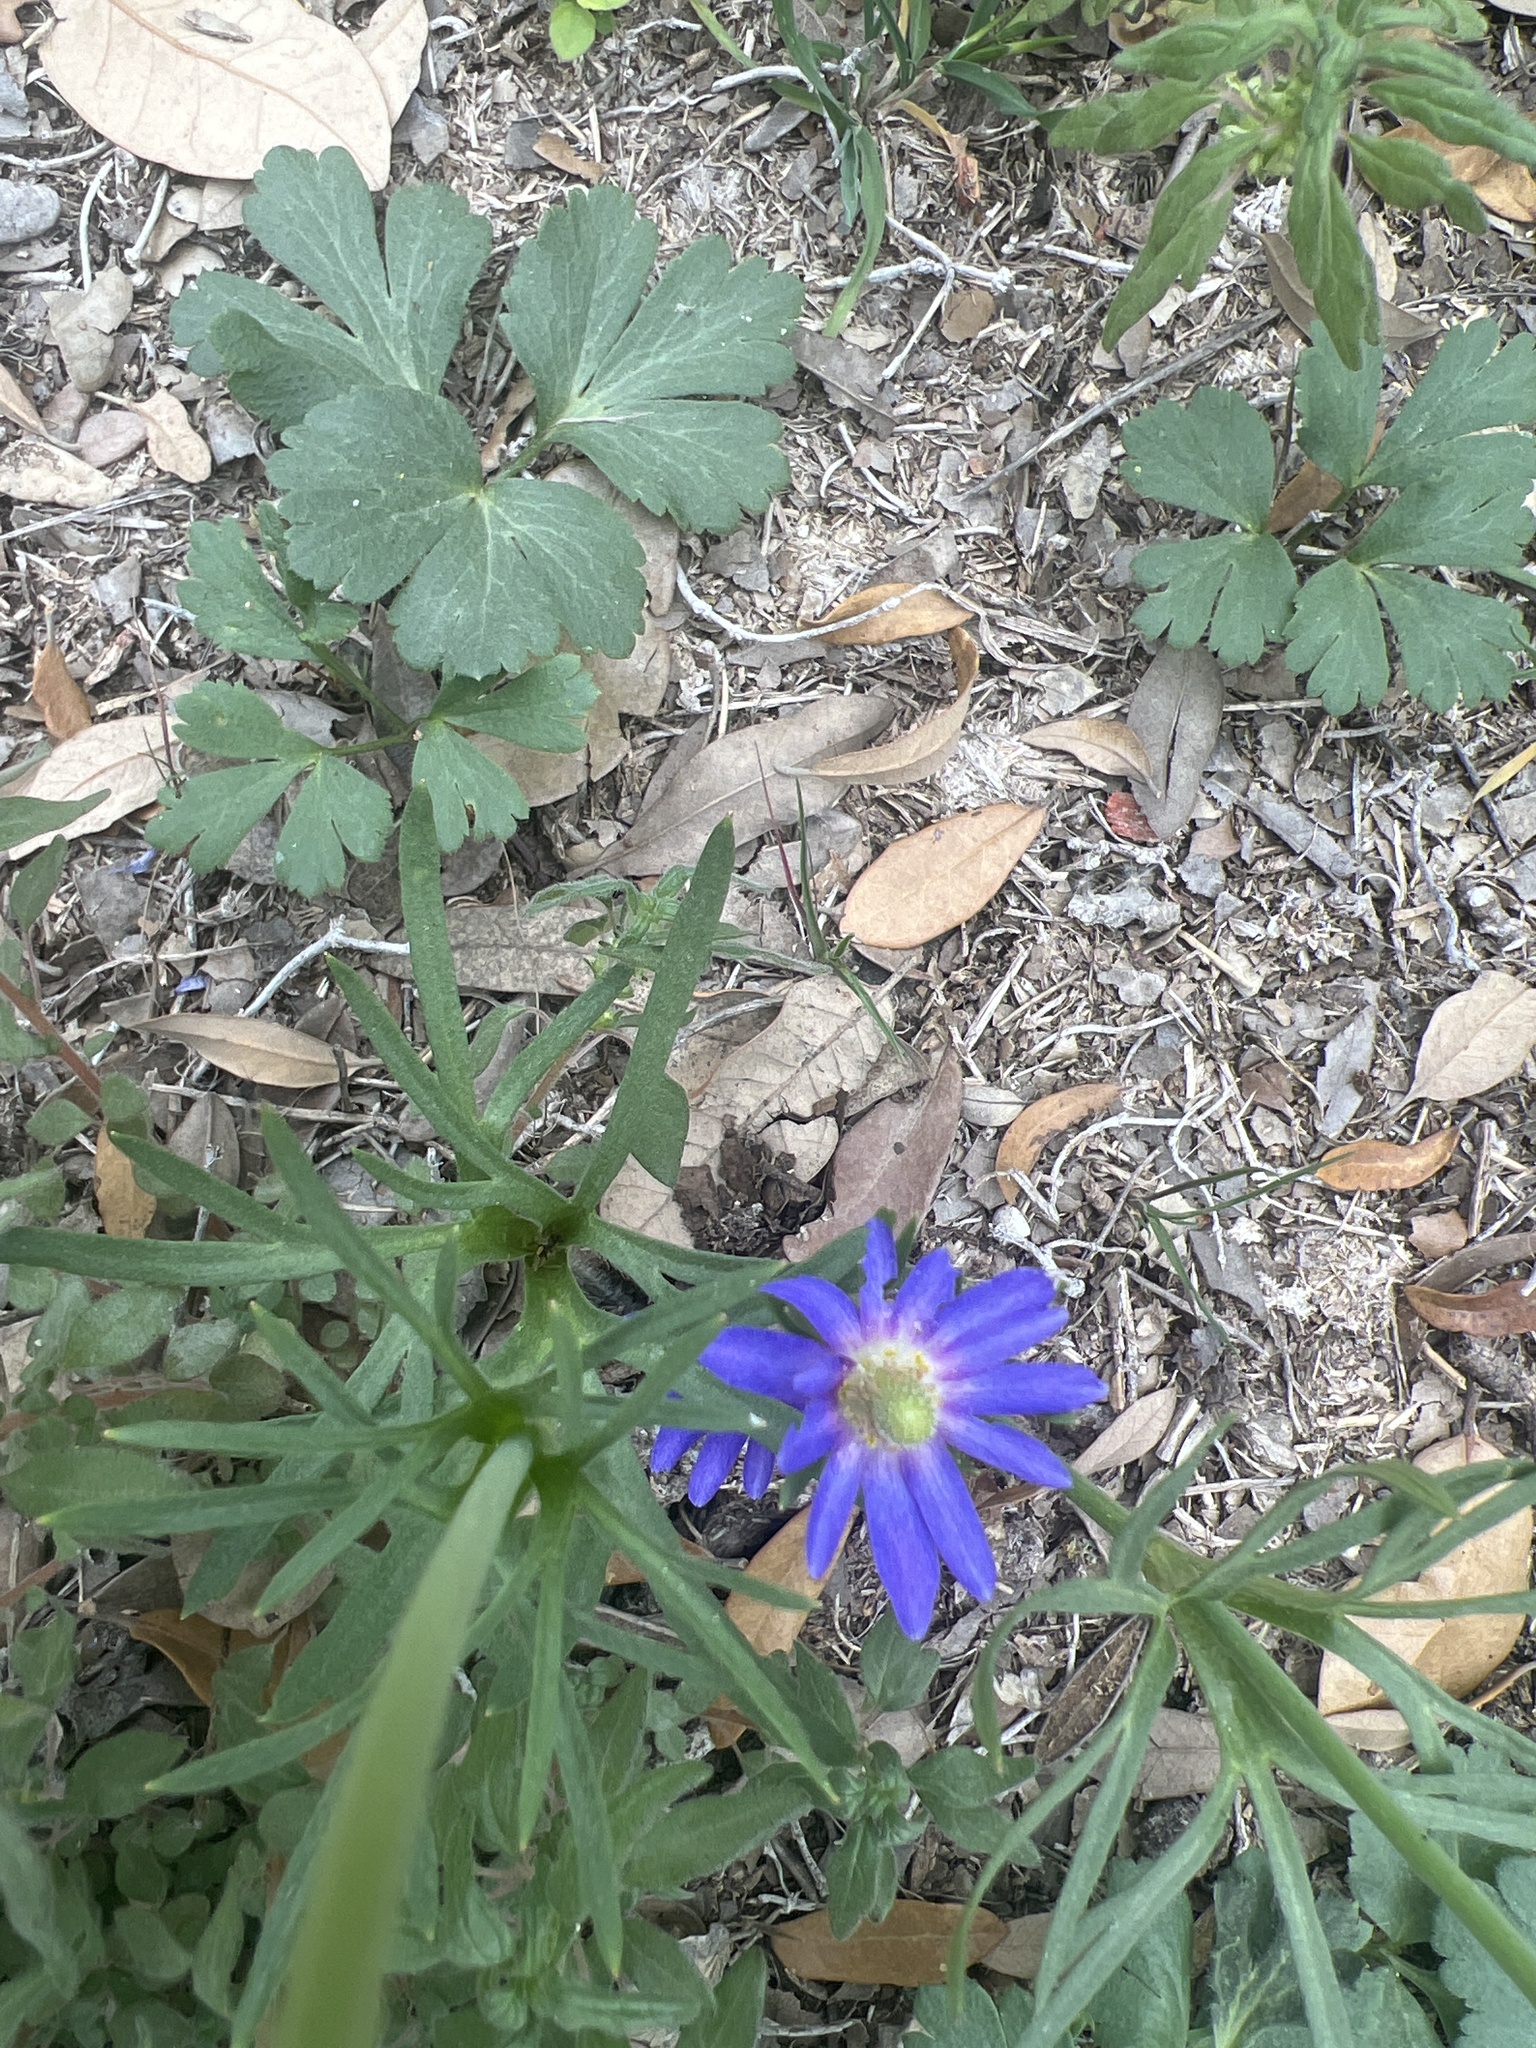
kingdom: Plantae
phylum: Tracheophyta
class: Magnoliopsida
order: Ranunculales
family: Ranunculaceae
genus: Anemone
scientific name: Anemone berlandieri
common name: Ten-petal anemone
